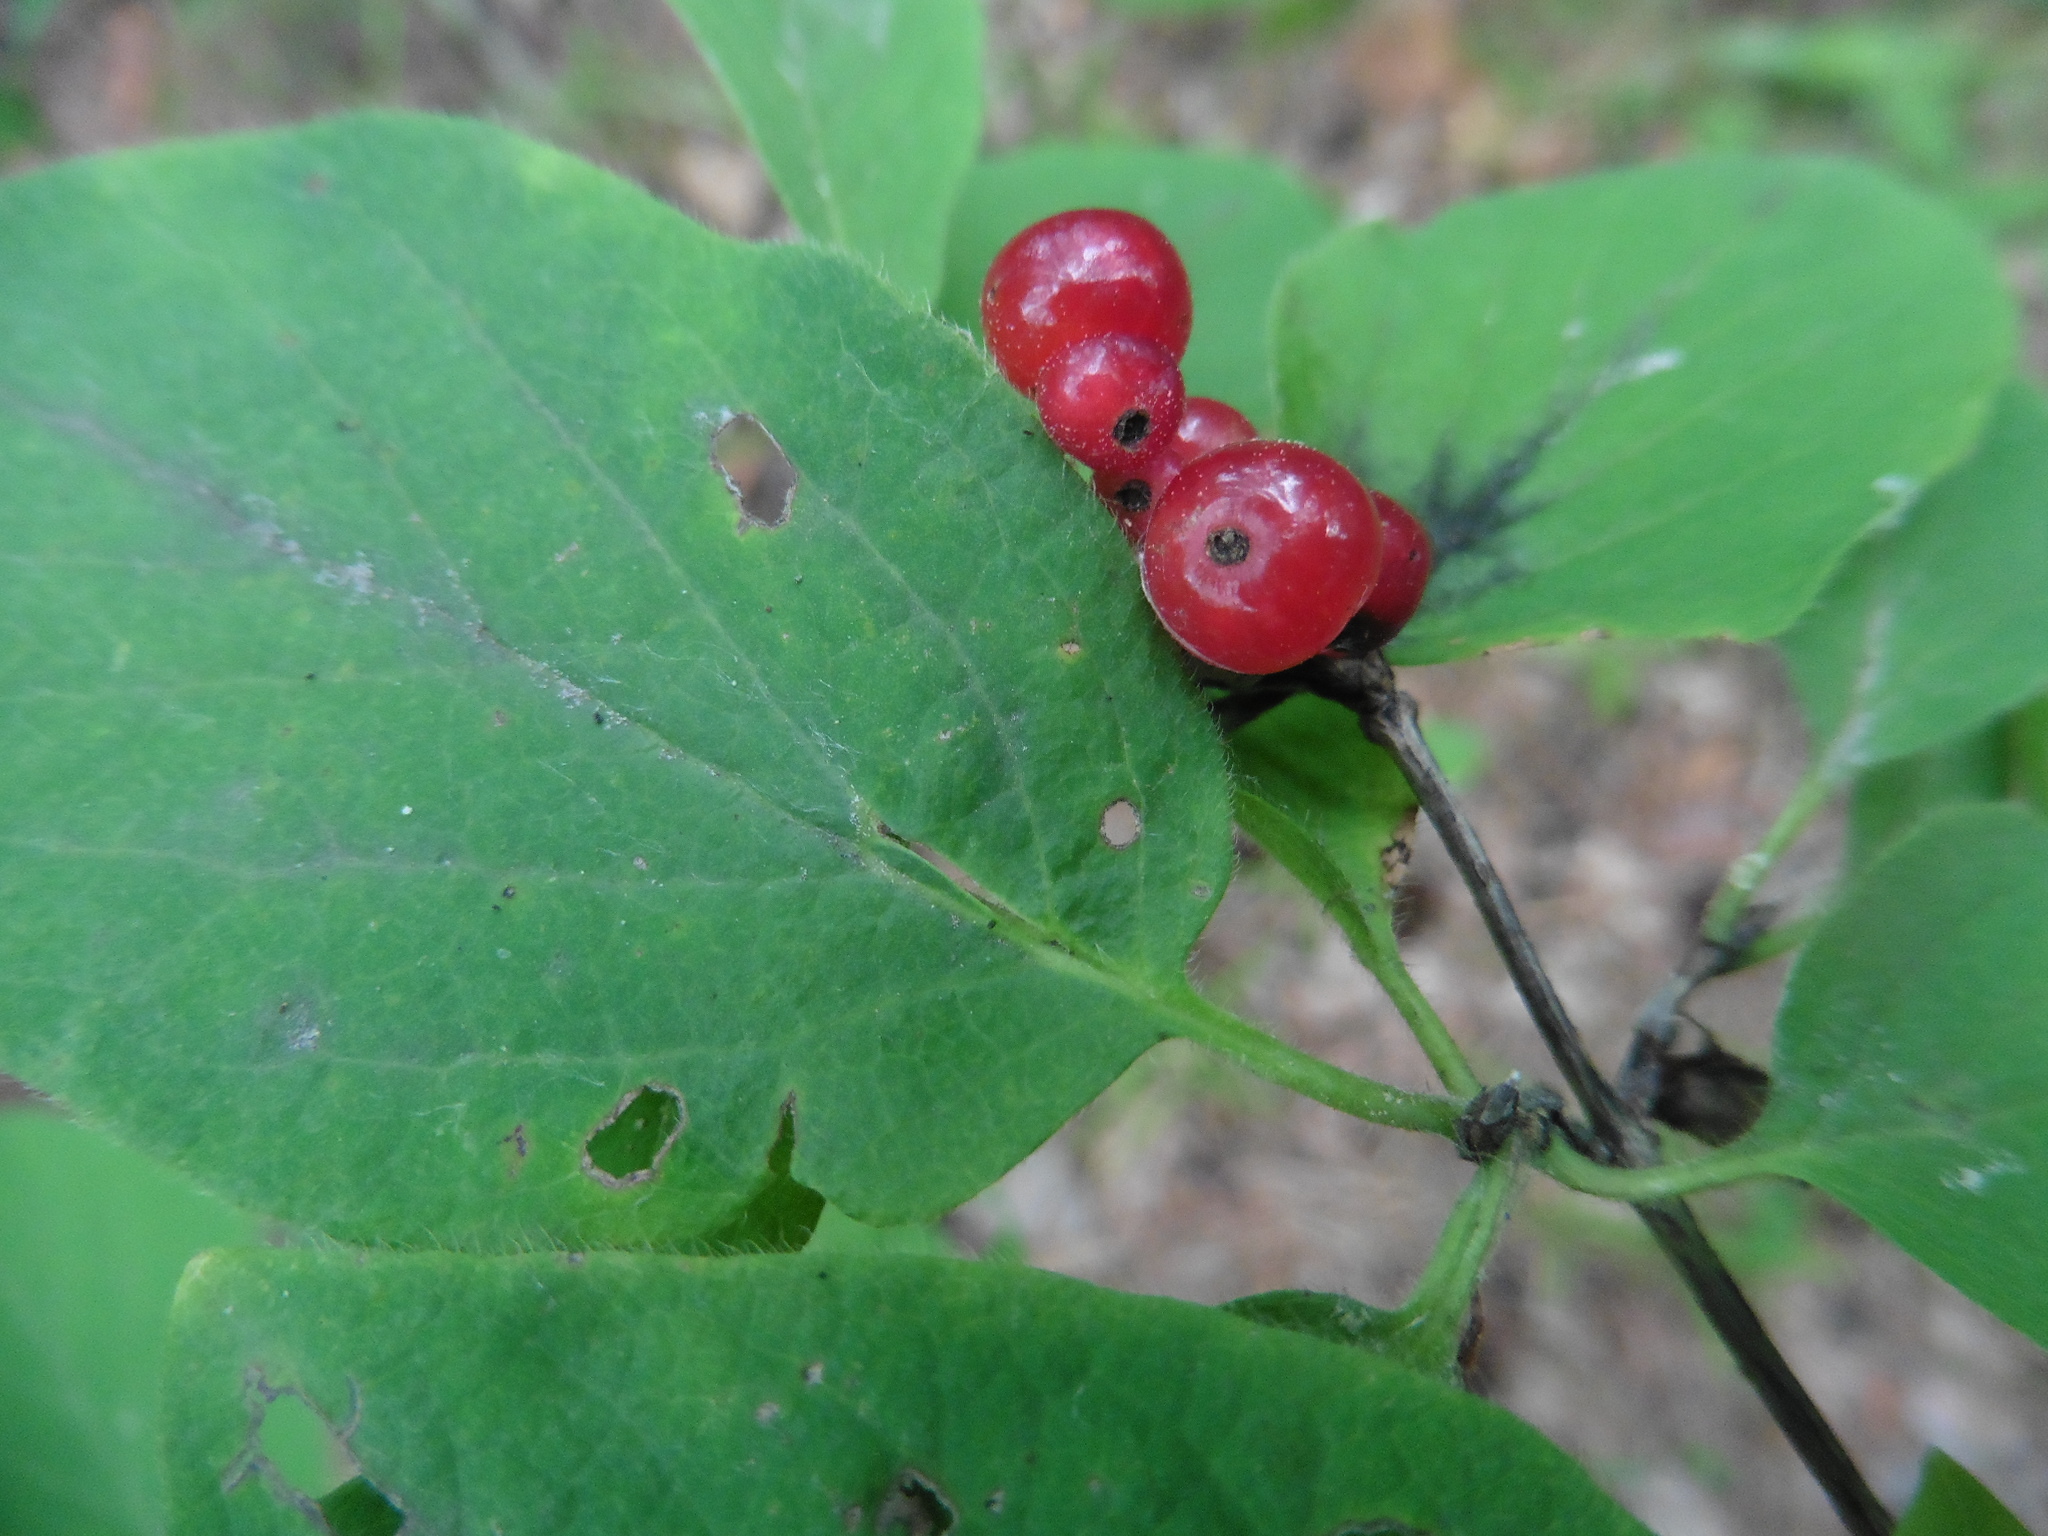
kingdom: Plantae
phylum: Tracheophyta
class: Magnoliopsida
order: Dipsacales
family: Caprifoliaceae
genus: Lonicera
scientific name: Lonicera xylosteum
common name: Fly honeysuckle
